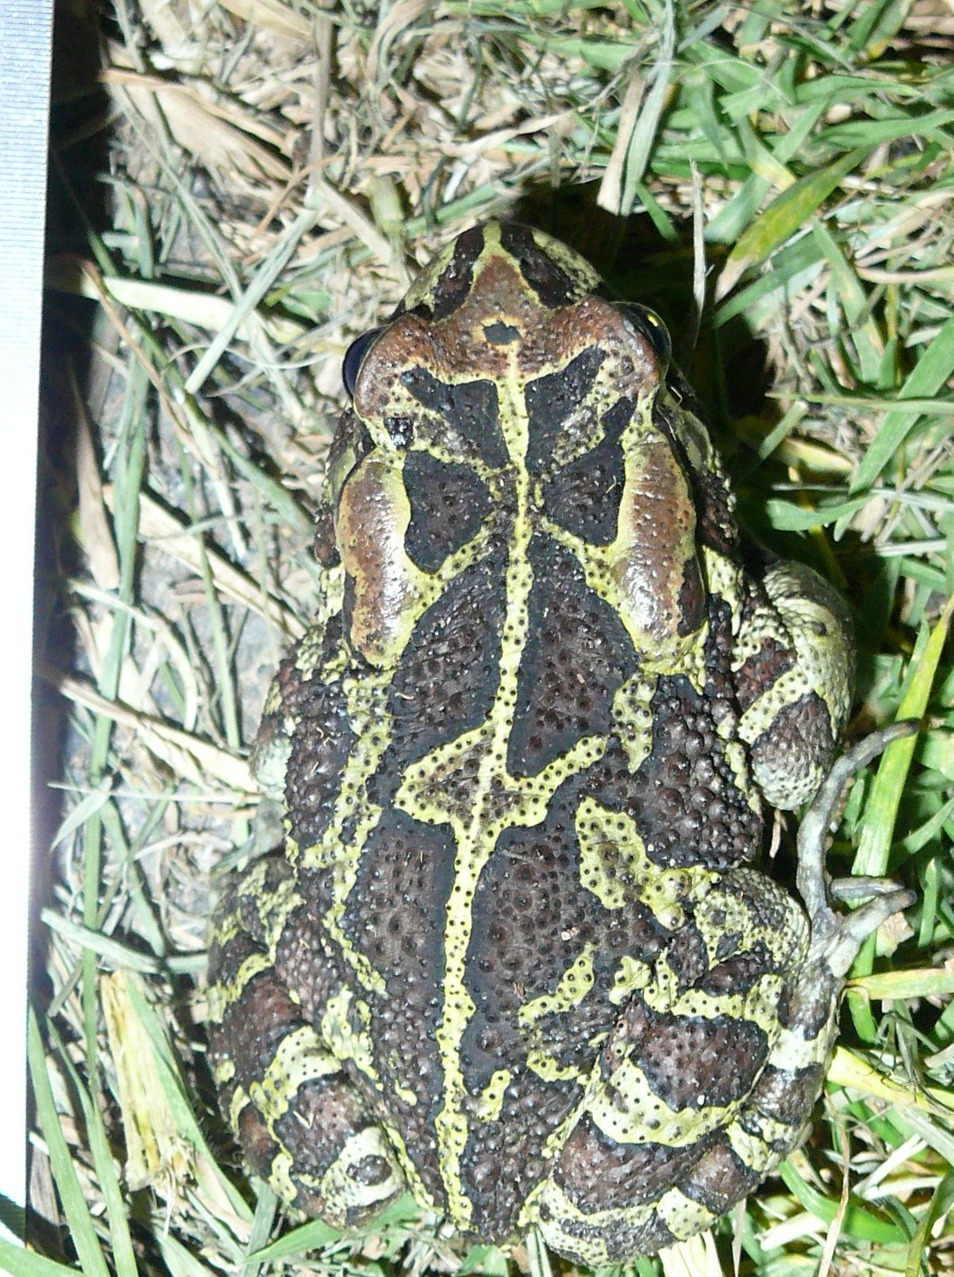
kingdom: Animalia
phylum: Chordata
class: Amphibia
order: Anura
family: Bufonidae
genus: Sclerophrys
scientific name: Sclerophrys pantherina
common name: Panther toad
